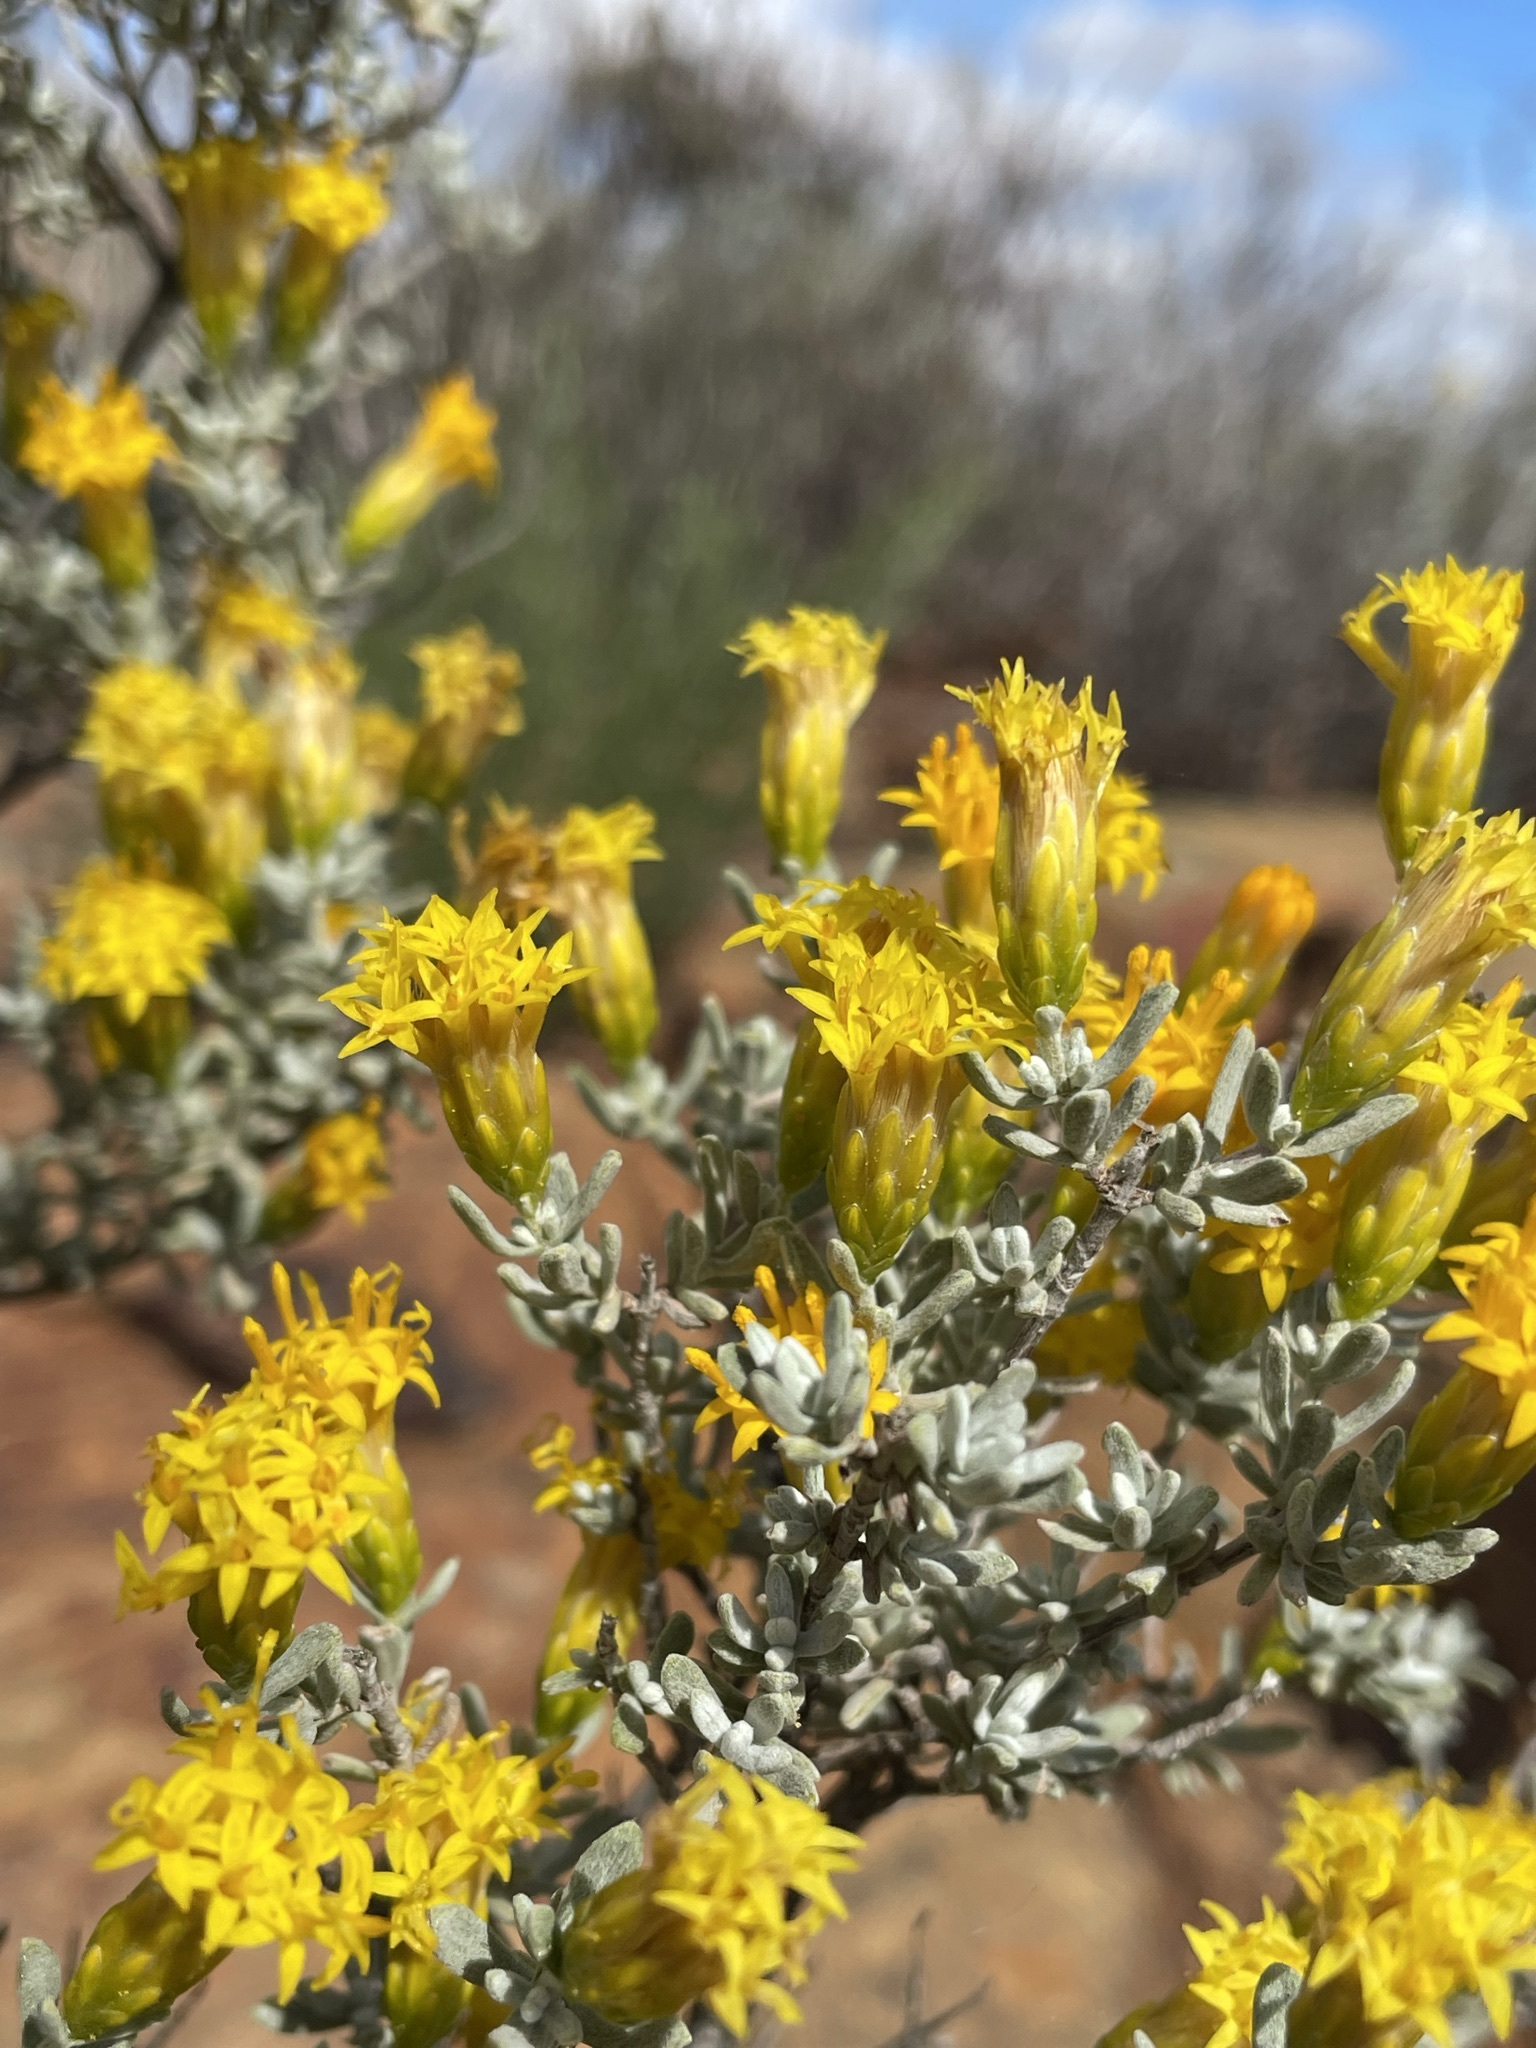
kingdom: Plantae
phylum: Tracheophyta
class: Magnoliopsida
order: Asterales
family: Asteraceae
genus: Pteronia
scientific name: Pteronia incana
